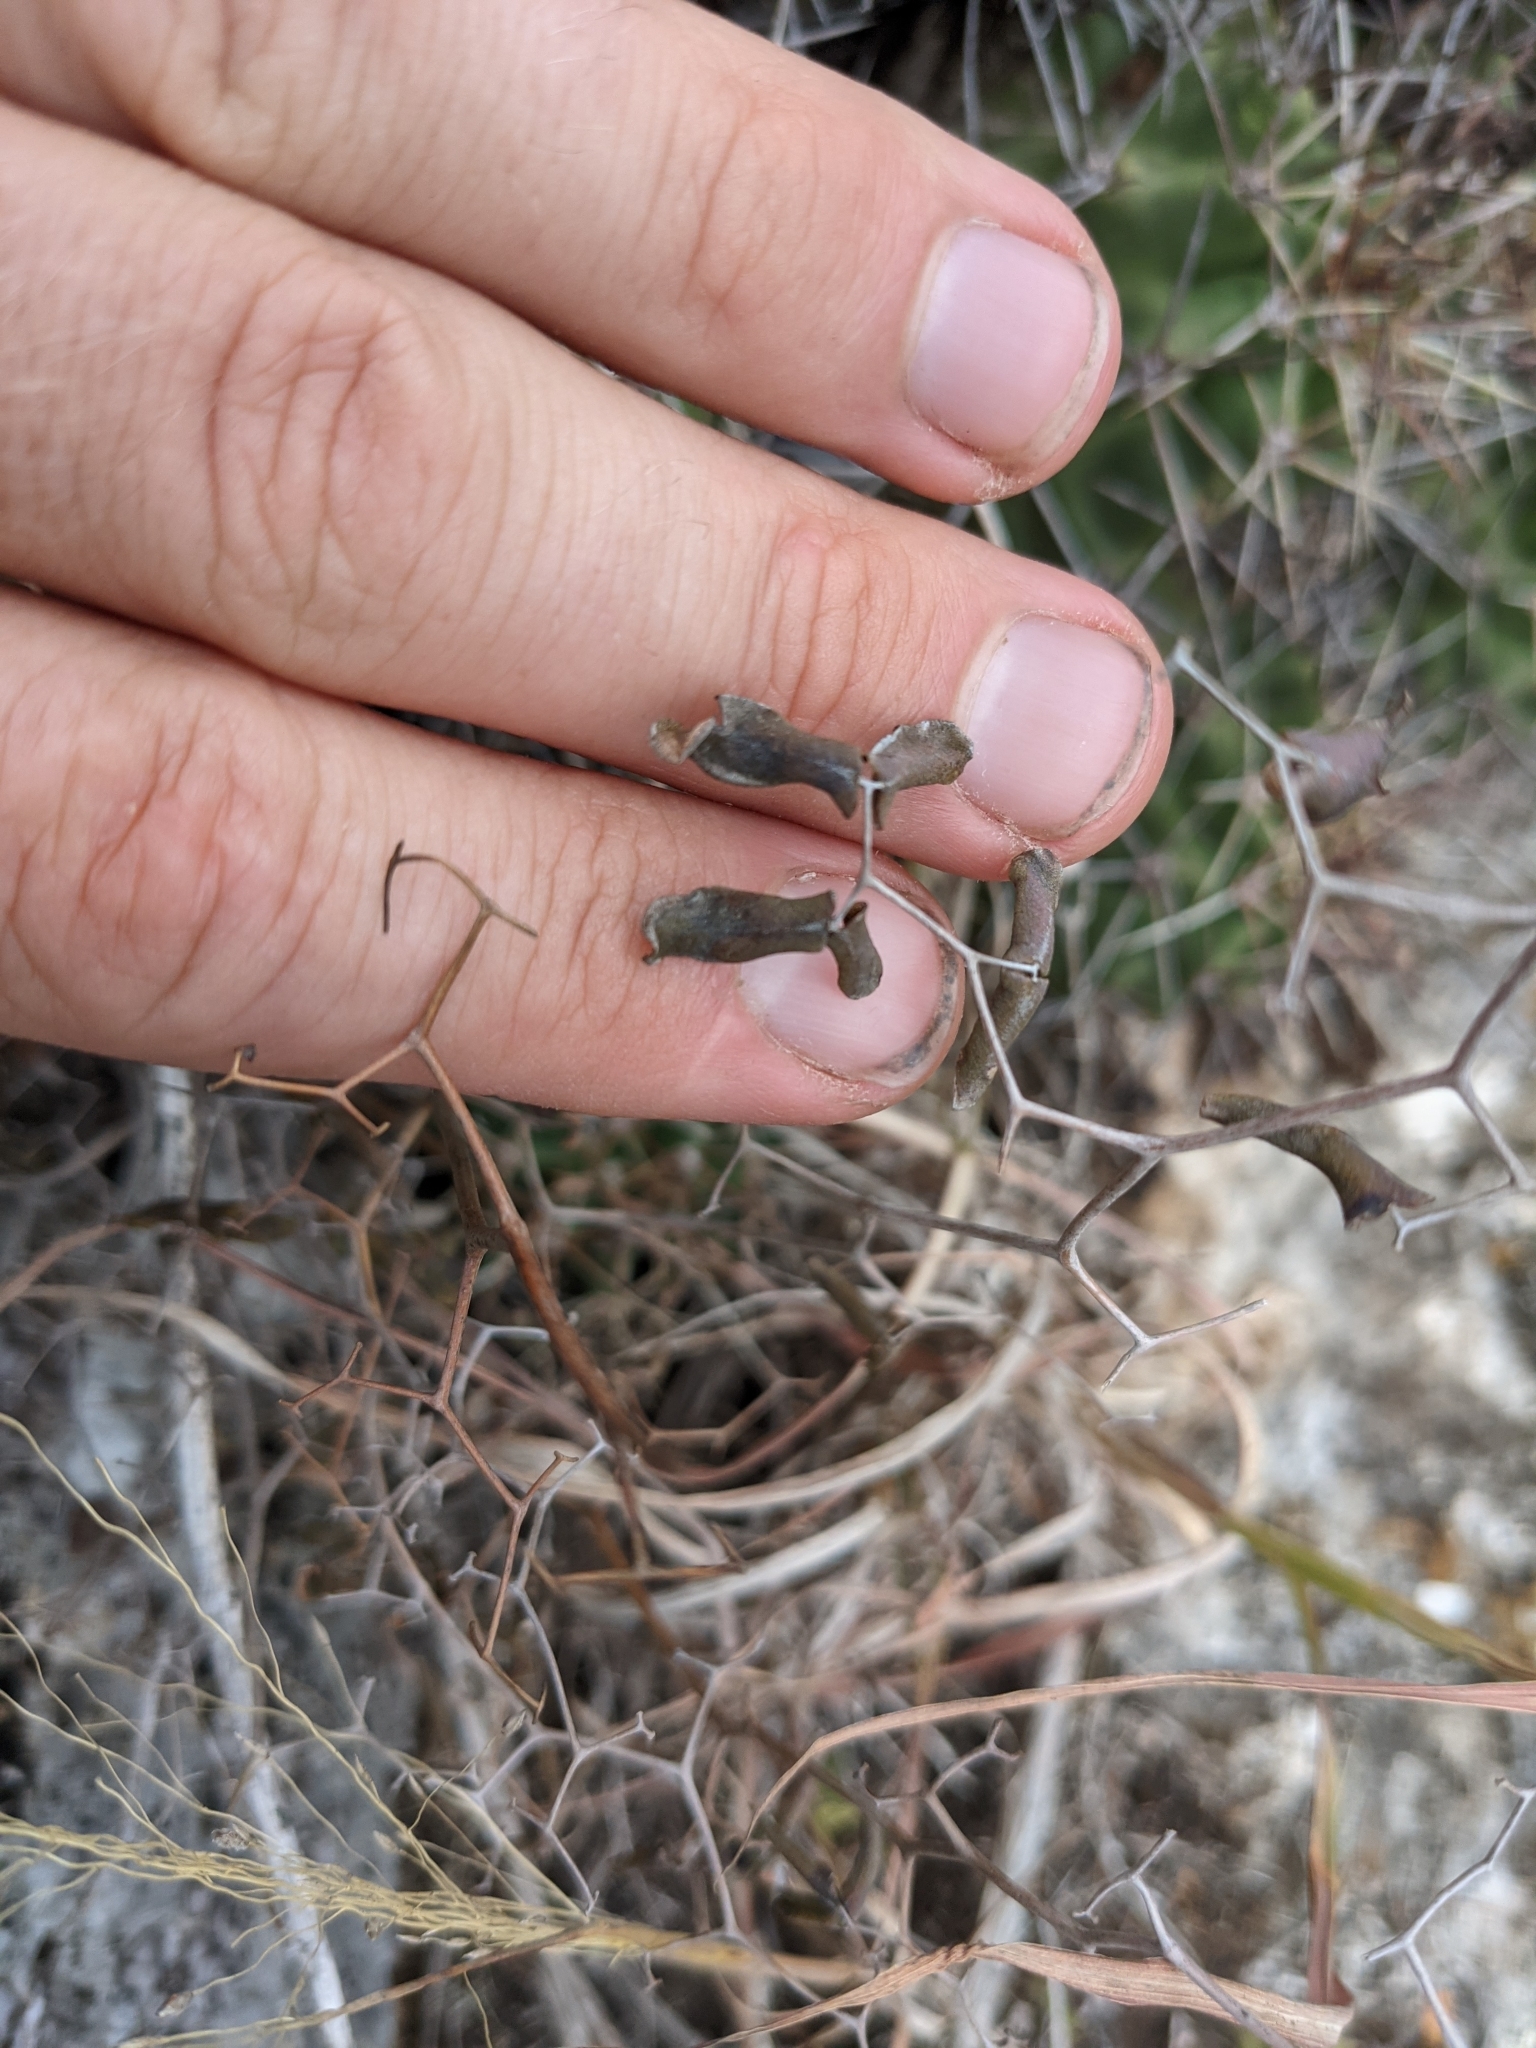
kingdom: Plantae
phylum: Tracheophyta
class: Polypodiopsida
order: Polypodiales
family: Pteridaceae
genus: Pellaea
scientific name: Pellaea ovata
